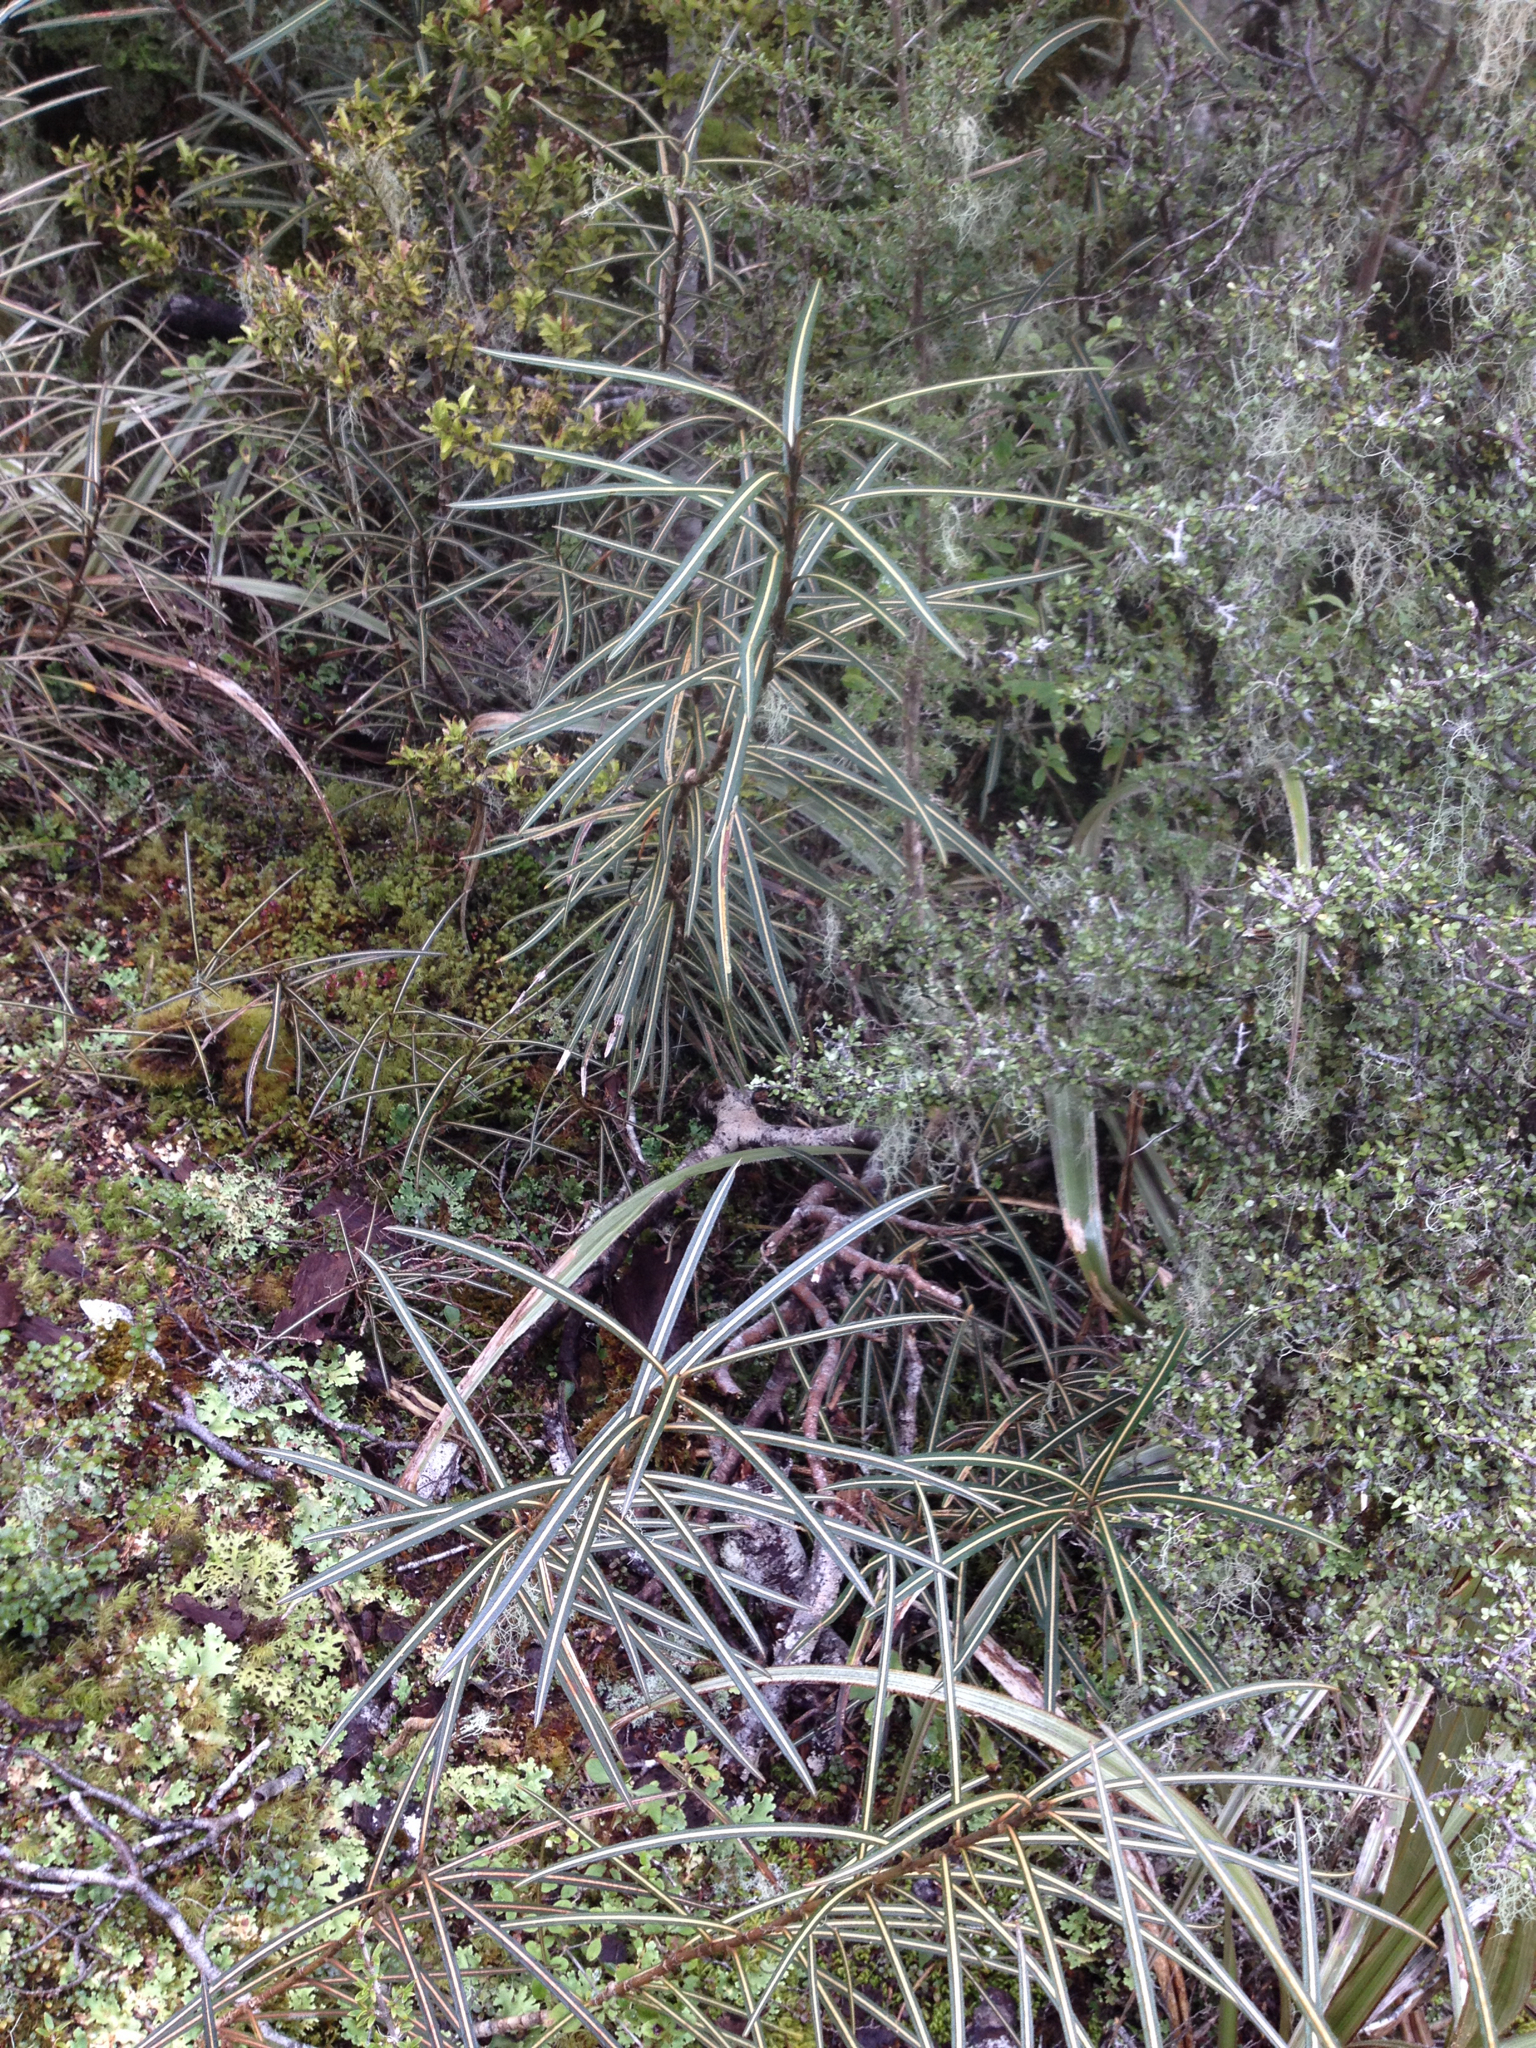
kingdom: Plantae
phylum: Tracheophyta
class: Magnoliopsida
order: Apiales
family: Araliaceae
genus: Pseudopanax
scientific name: Pseudopanax crassifolius
